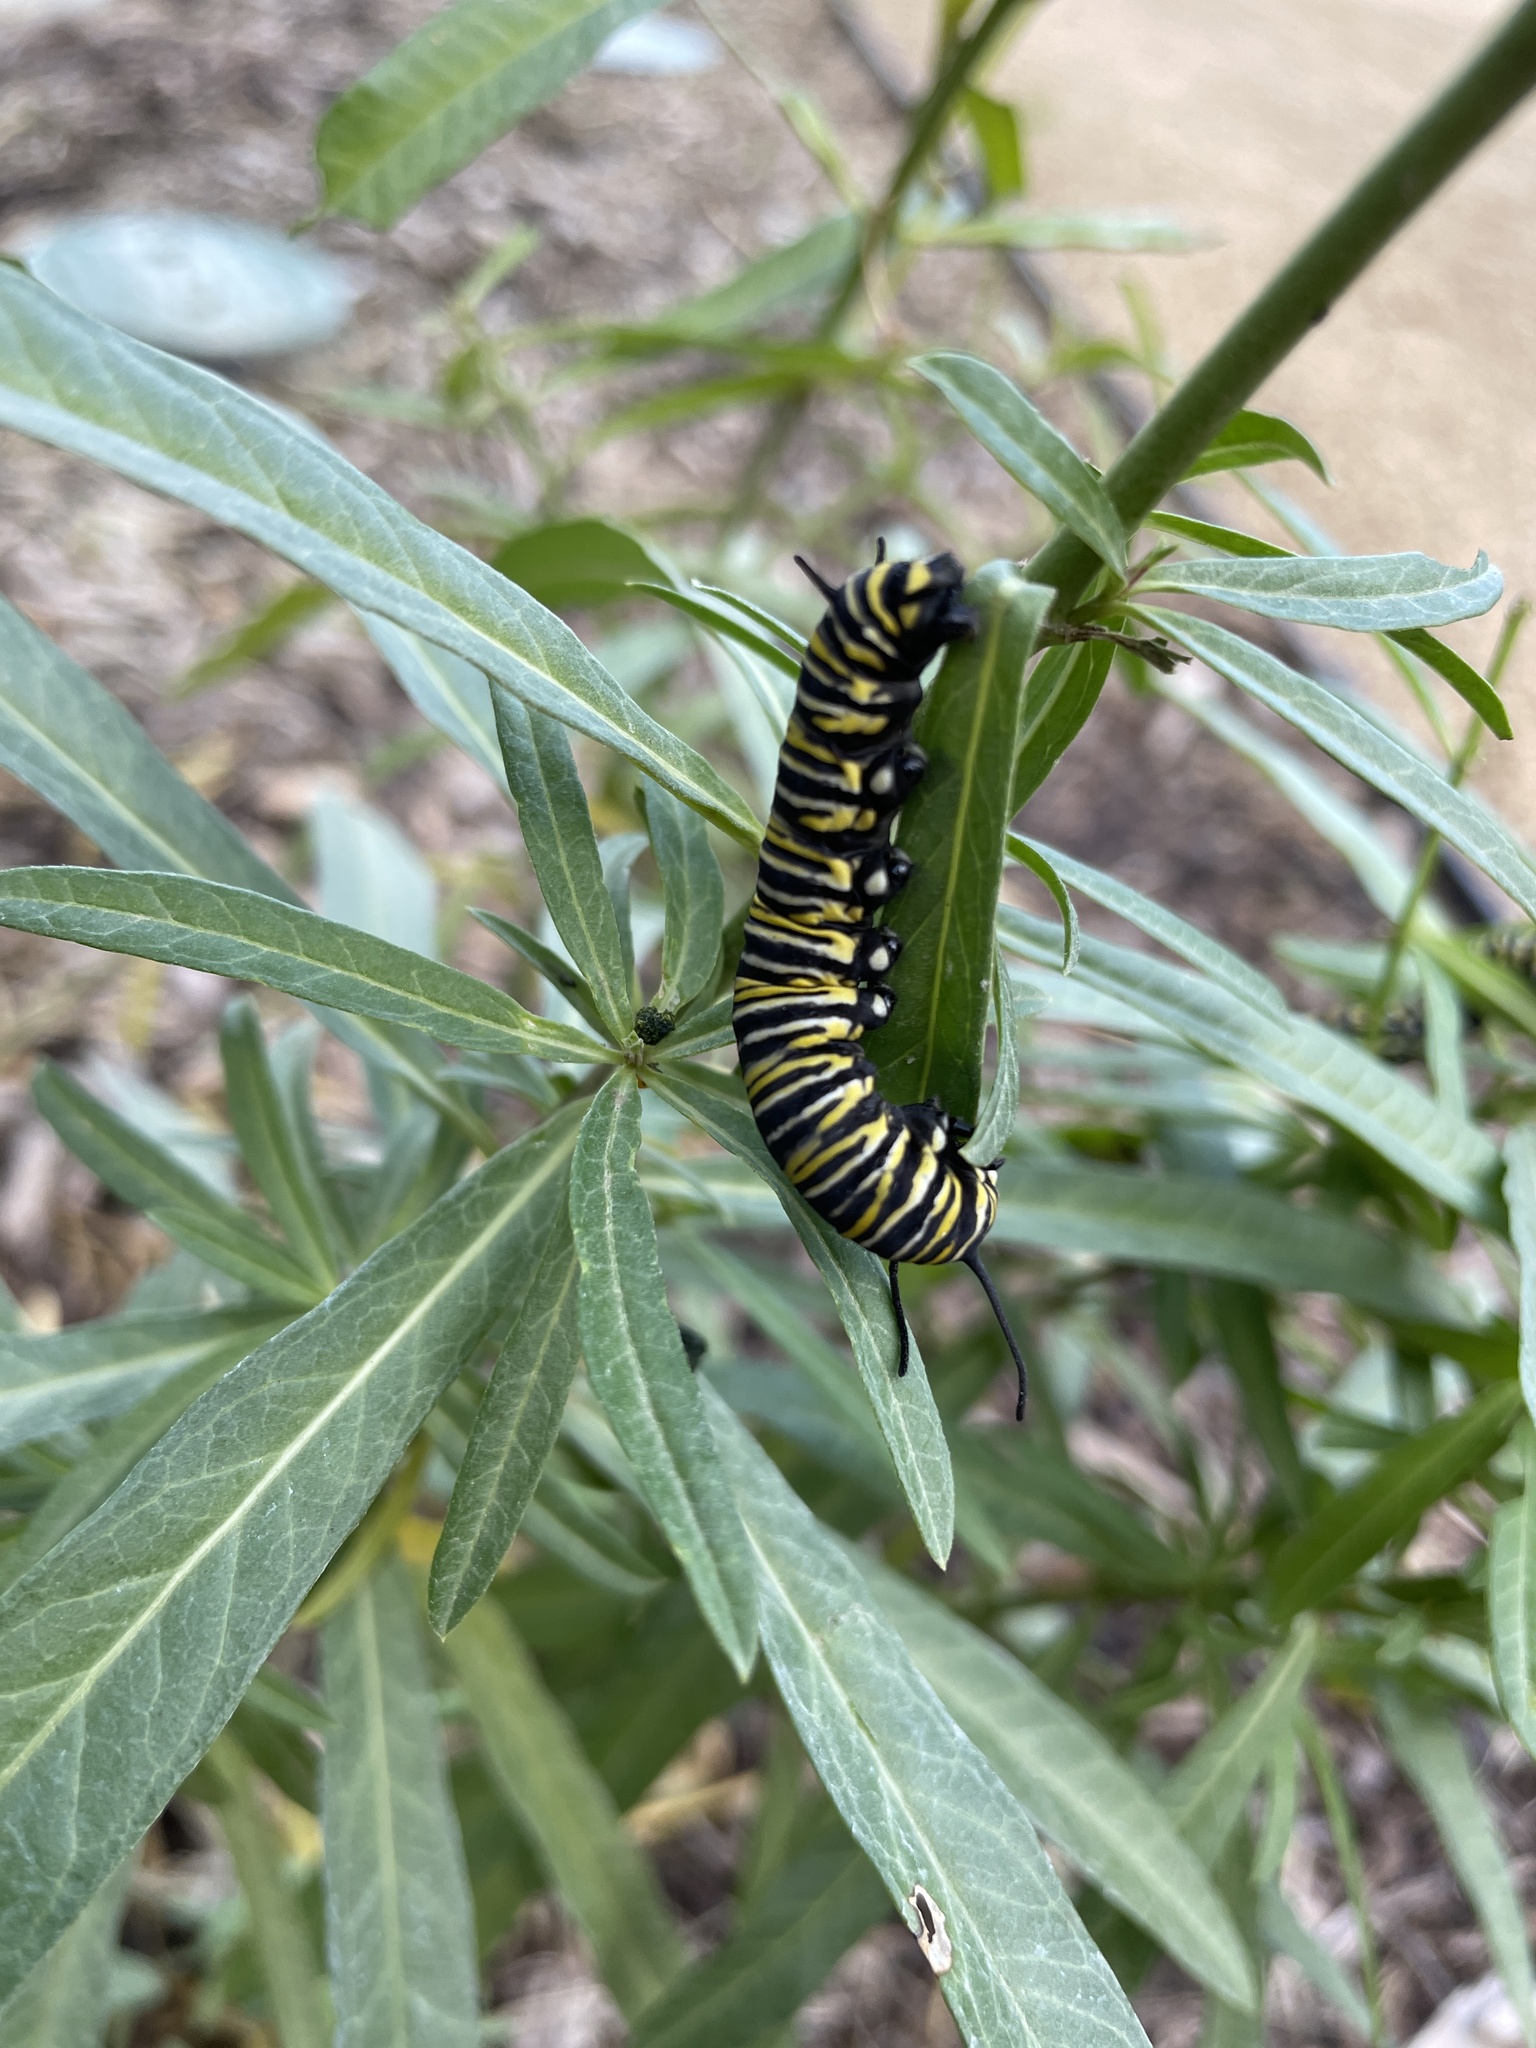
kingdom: Animalia
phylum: Arthropoda
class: Insecta
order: Lepidoptera
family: Nymphalidae
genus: Danaus
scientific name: Danaus plexippus
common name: Monarch
